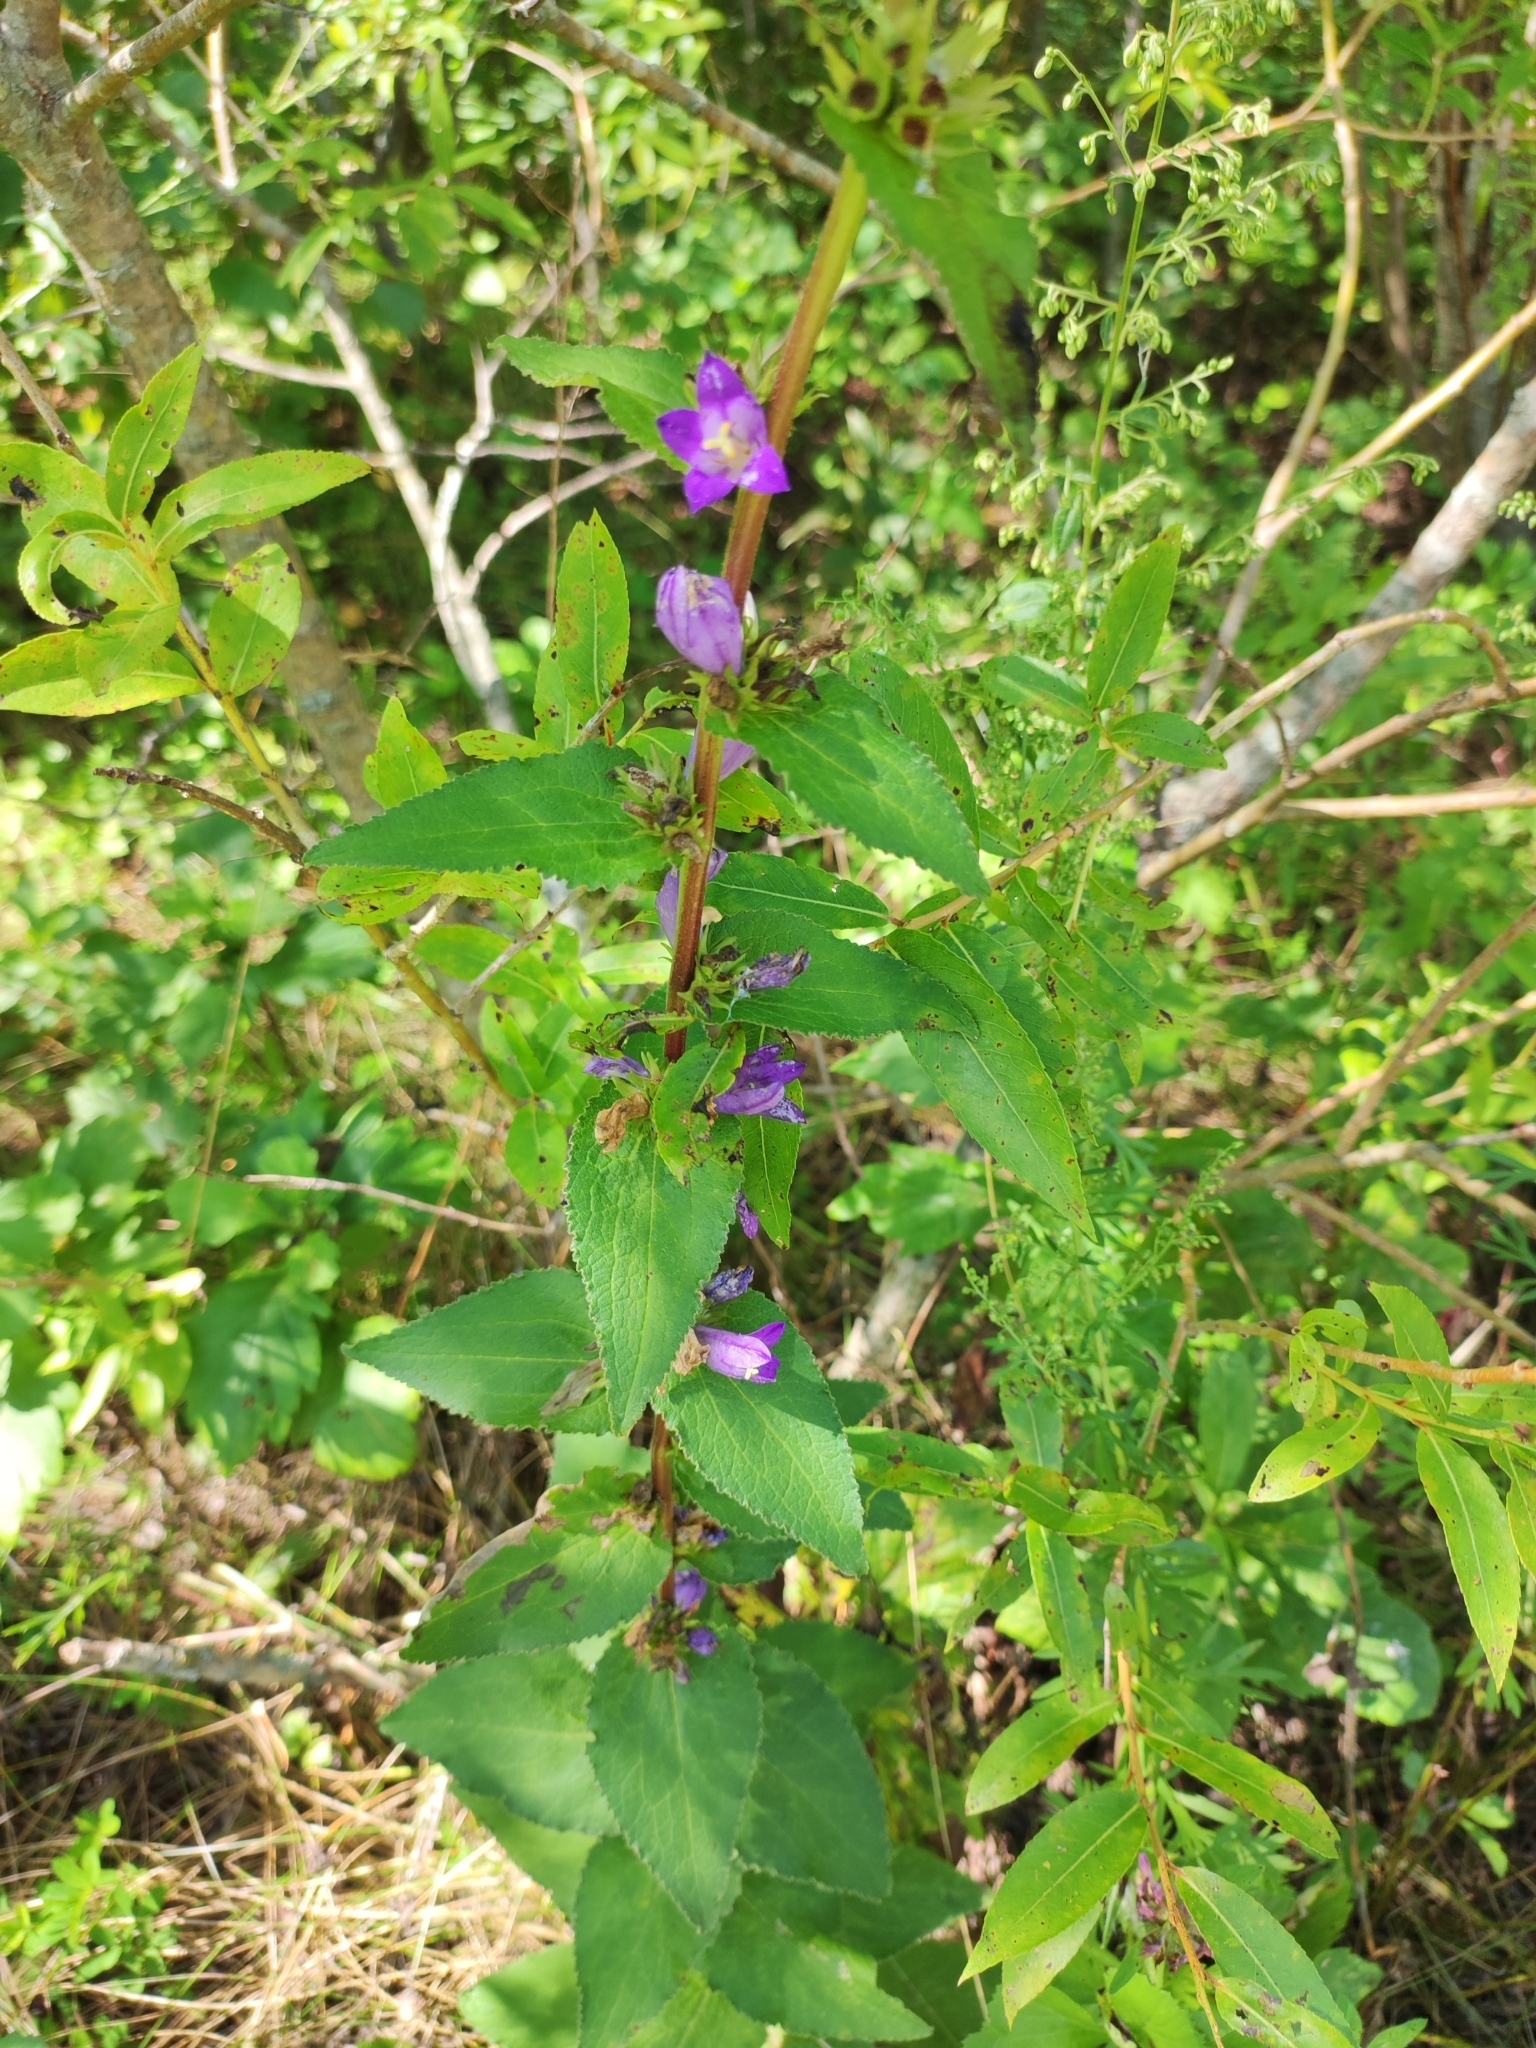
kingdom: Plantae
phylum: Tracheophyta
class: Magnoliopsida
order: Asterales
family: Campanulaceae
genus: Campanula
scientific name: Campanula glomerata
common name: Clustered bellflower
